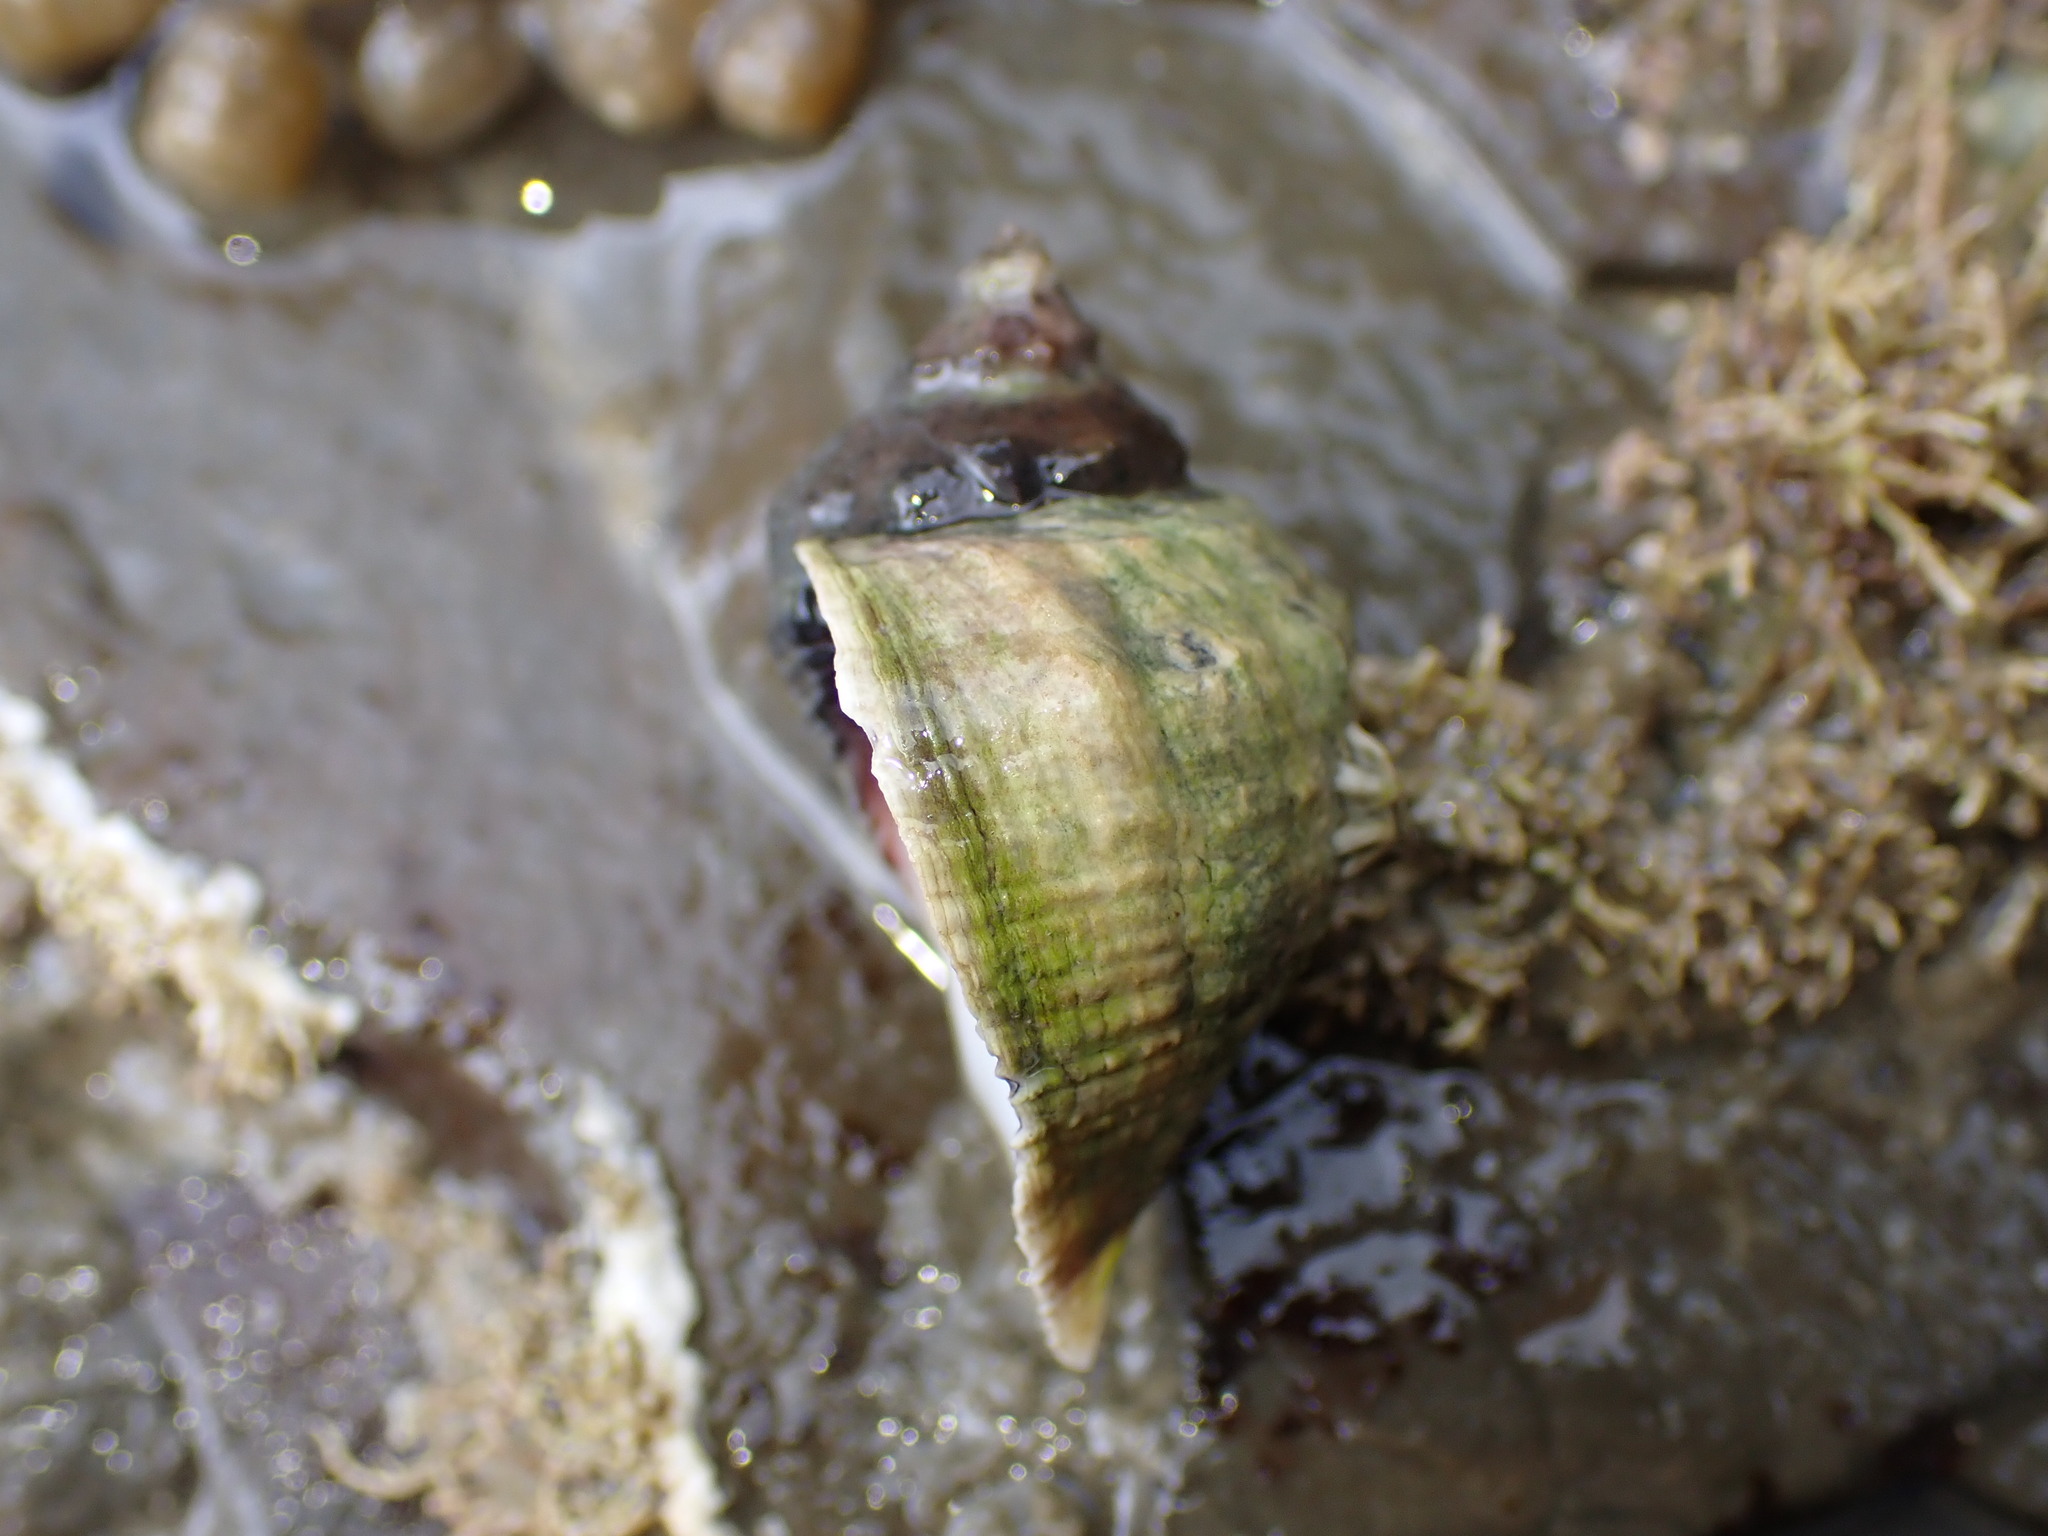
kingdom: Animalia
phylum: Mollusca
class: Gastropoda
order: Neogastropoda
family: Muricidae
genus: Haustrum
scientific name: Haustrum haustorium
